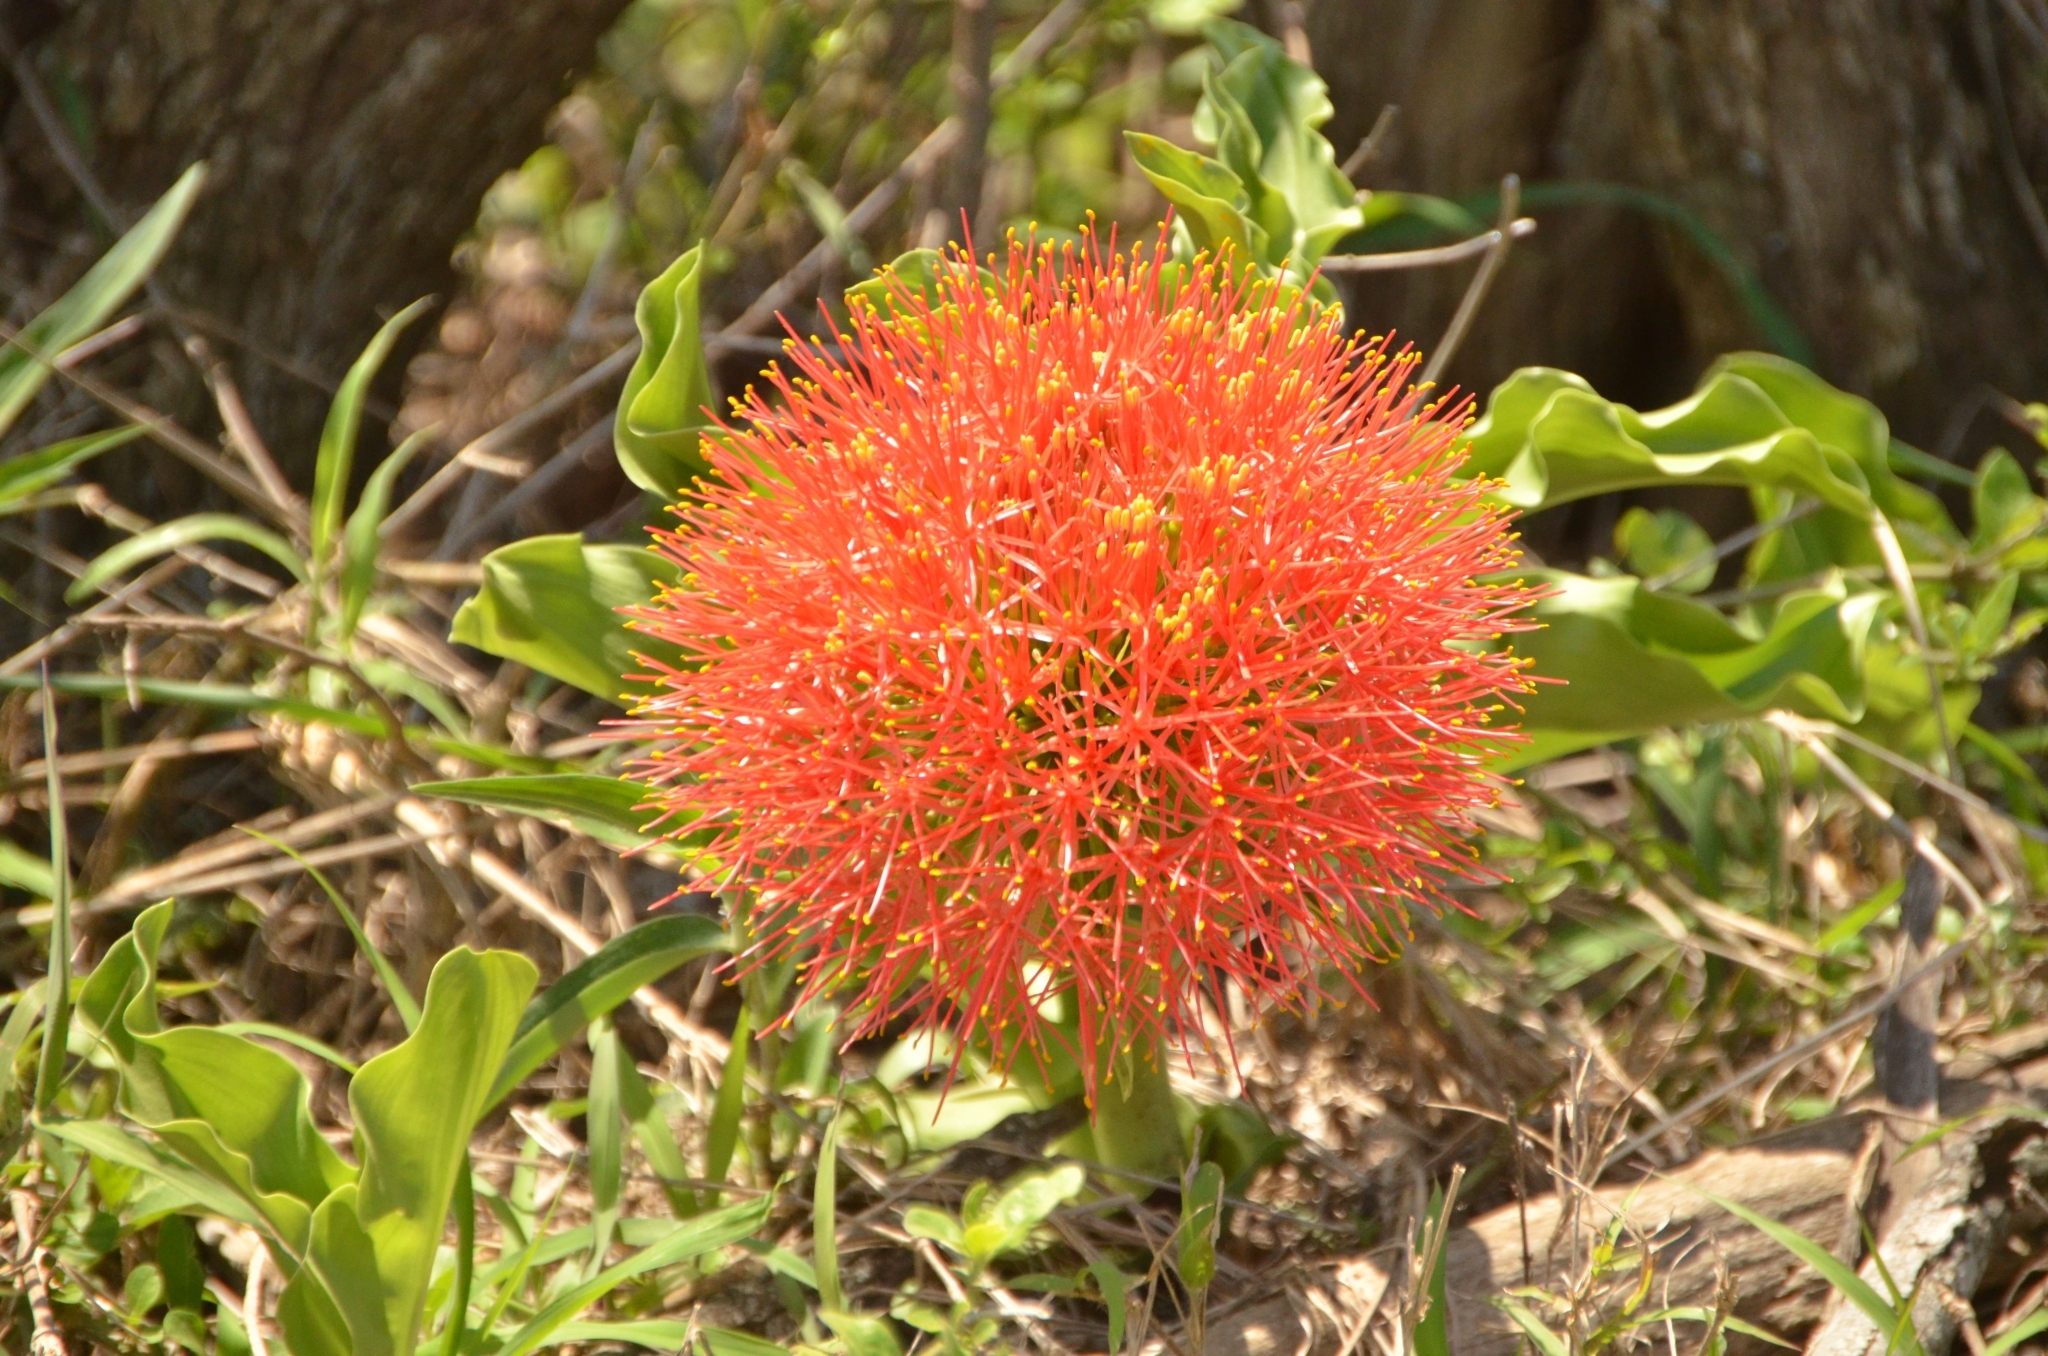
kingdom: Plantae
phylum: Tracheophyta
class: Liliopsida
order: Asparagales
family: Amaryllidaceae
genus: Scadoxus
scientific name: Scadoxus multiflorus
